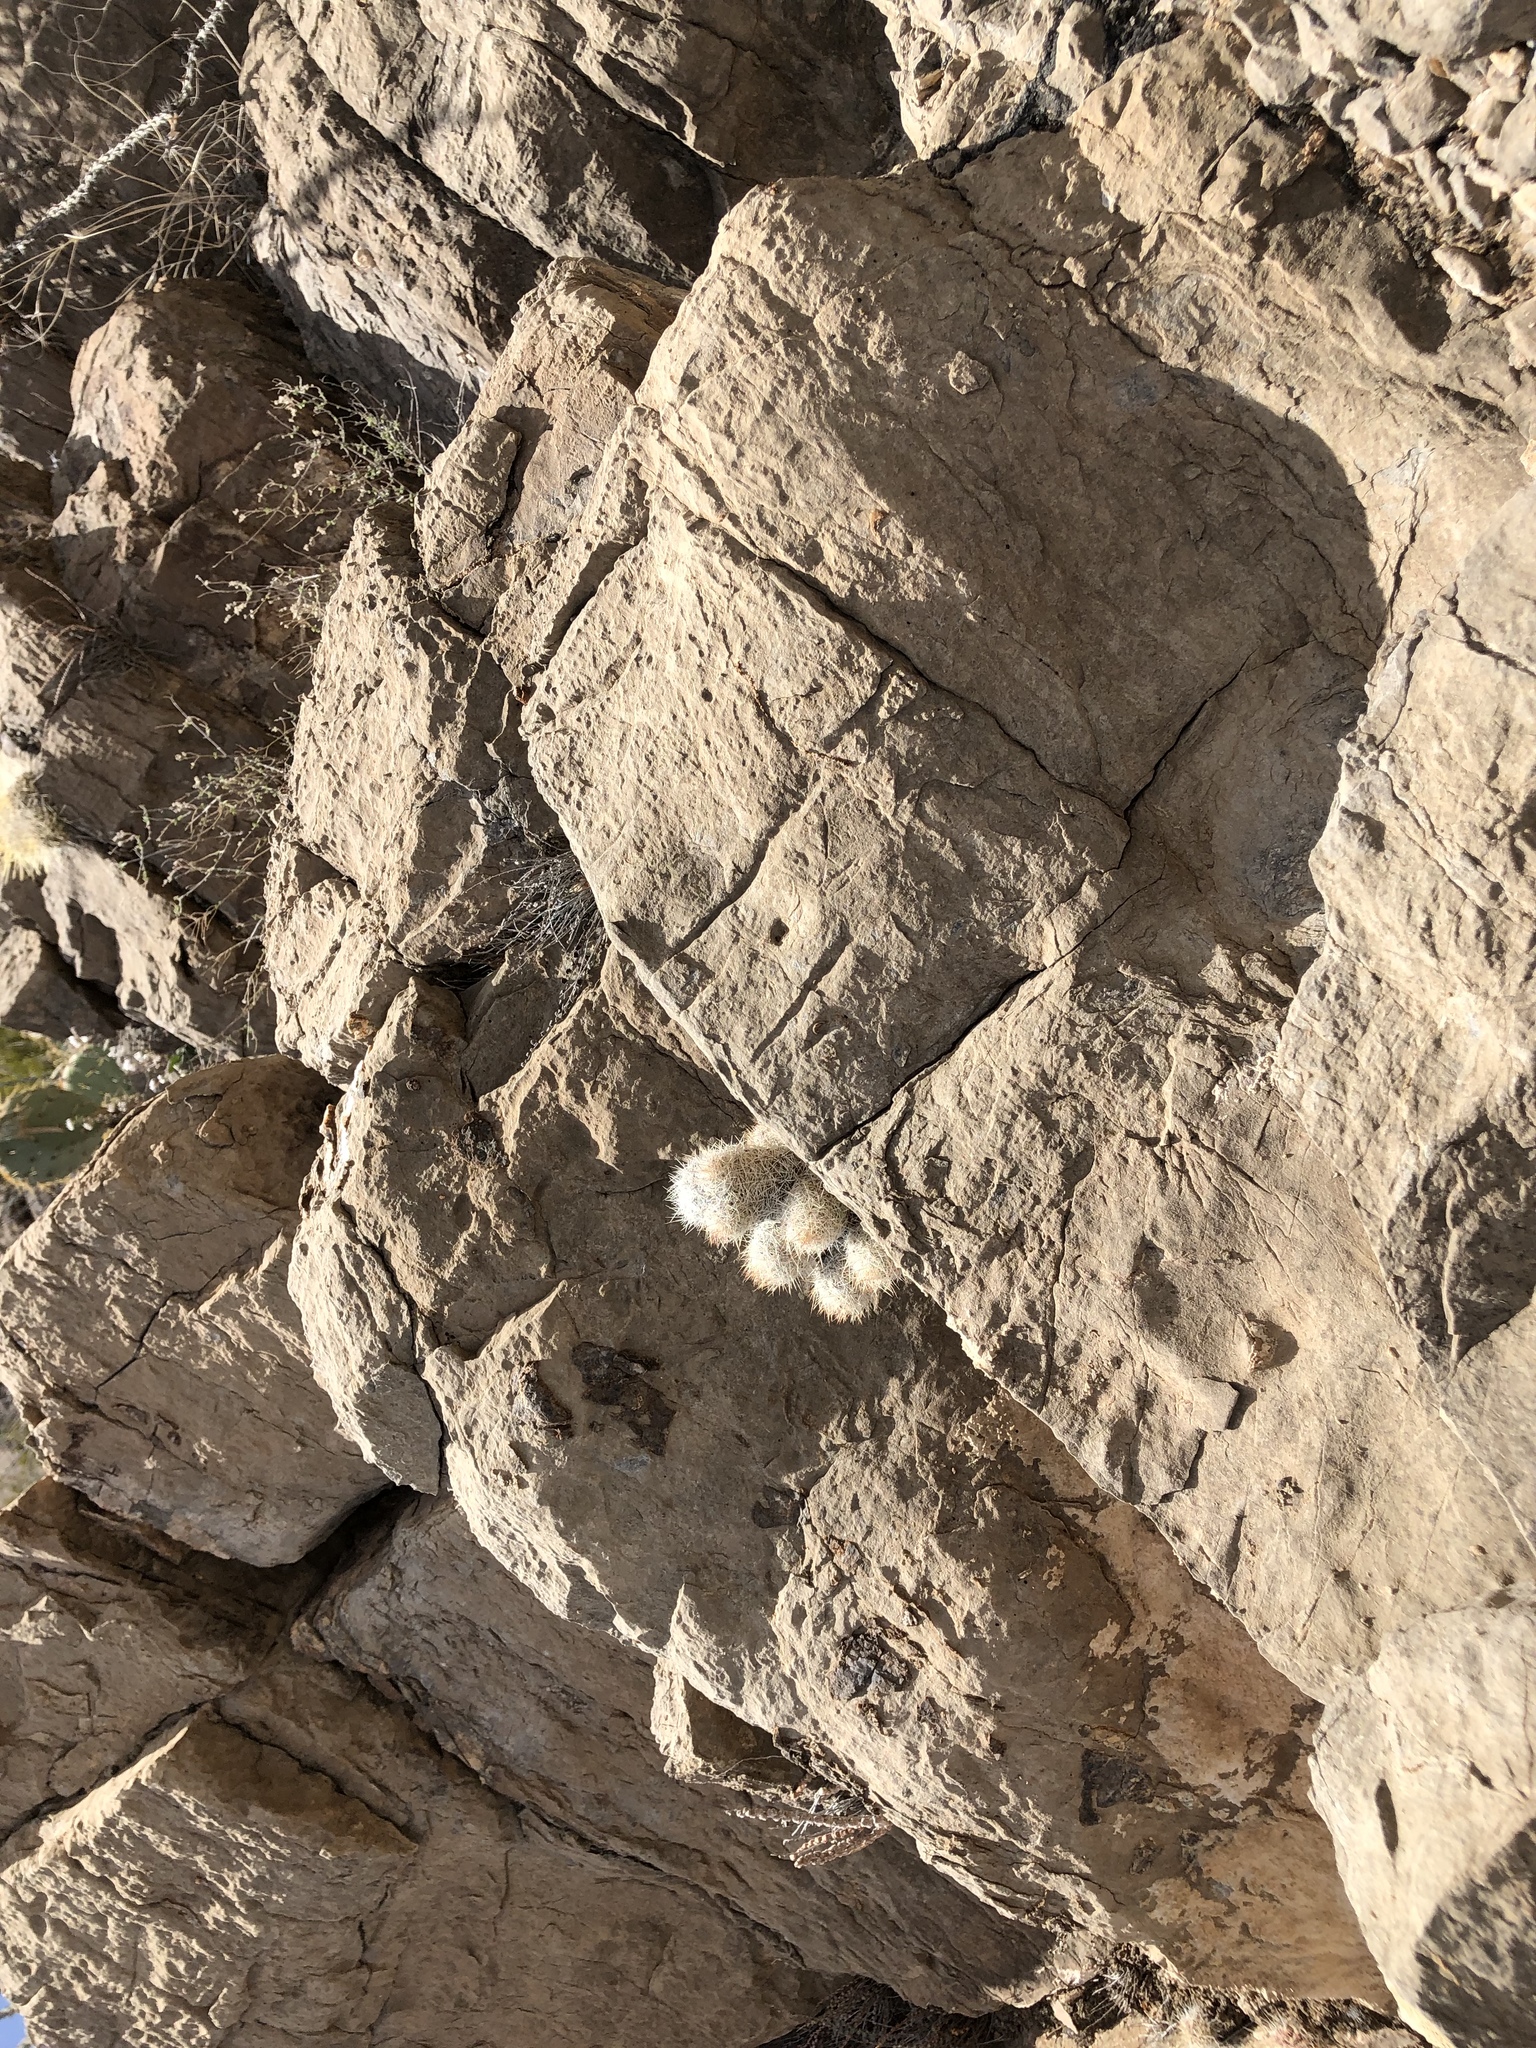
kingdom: Plantae
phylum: Tracheophyta
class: Magnoliopsida
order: Caryophyllales
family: Cactaceae
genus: Pelecyphora
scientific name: Pelecyphora tuberculosa
